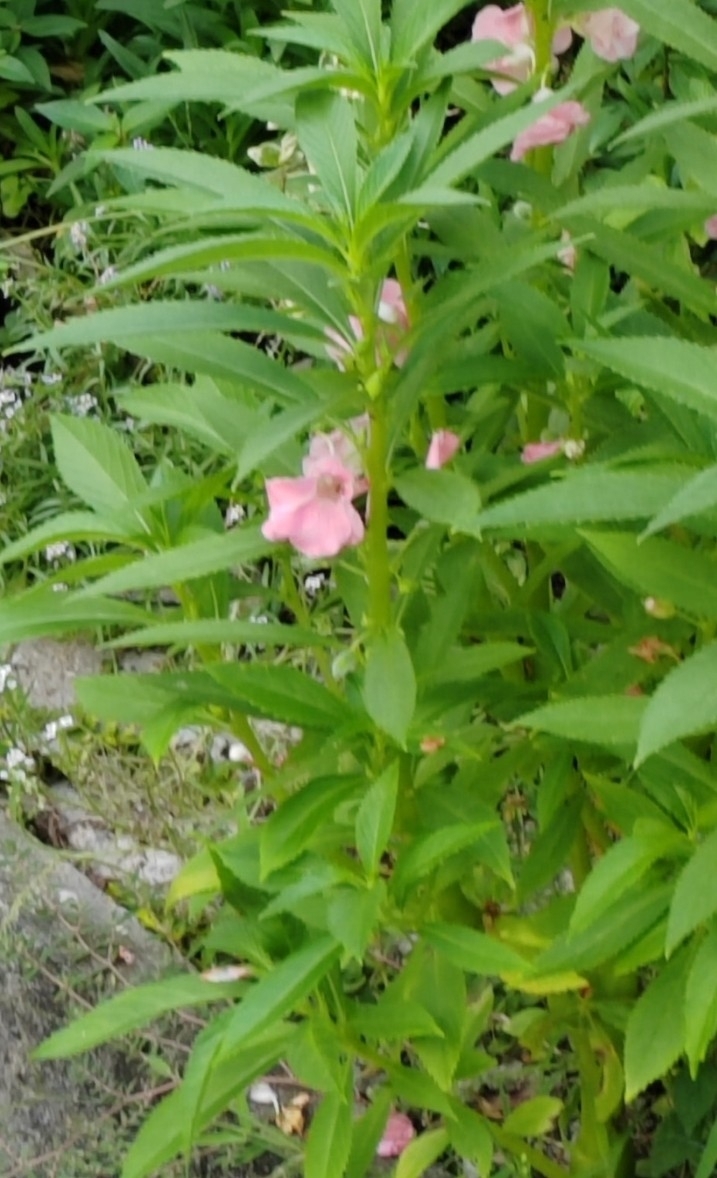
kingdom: Plantae
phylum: Tracheophyta
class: Magnoliopsida
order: Ericales
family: Balsaminaceae
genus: Impatiens
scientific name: Impatiens balsamina
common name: Balsam
